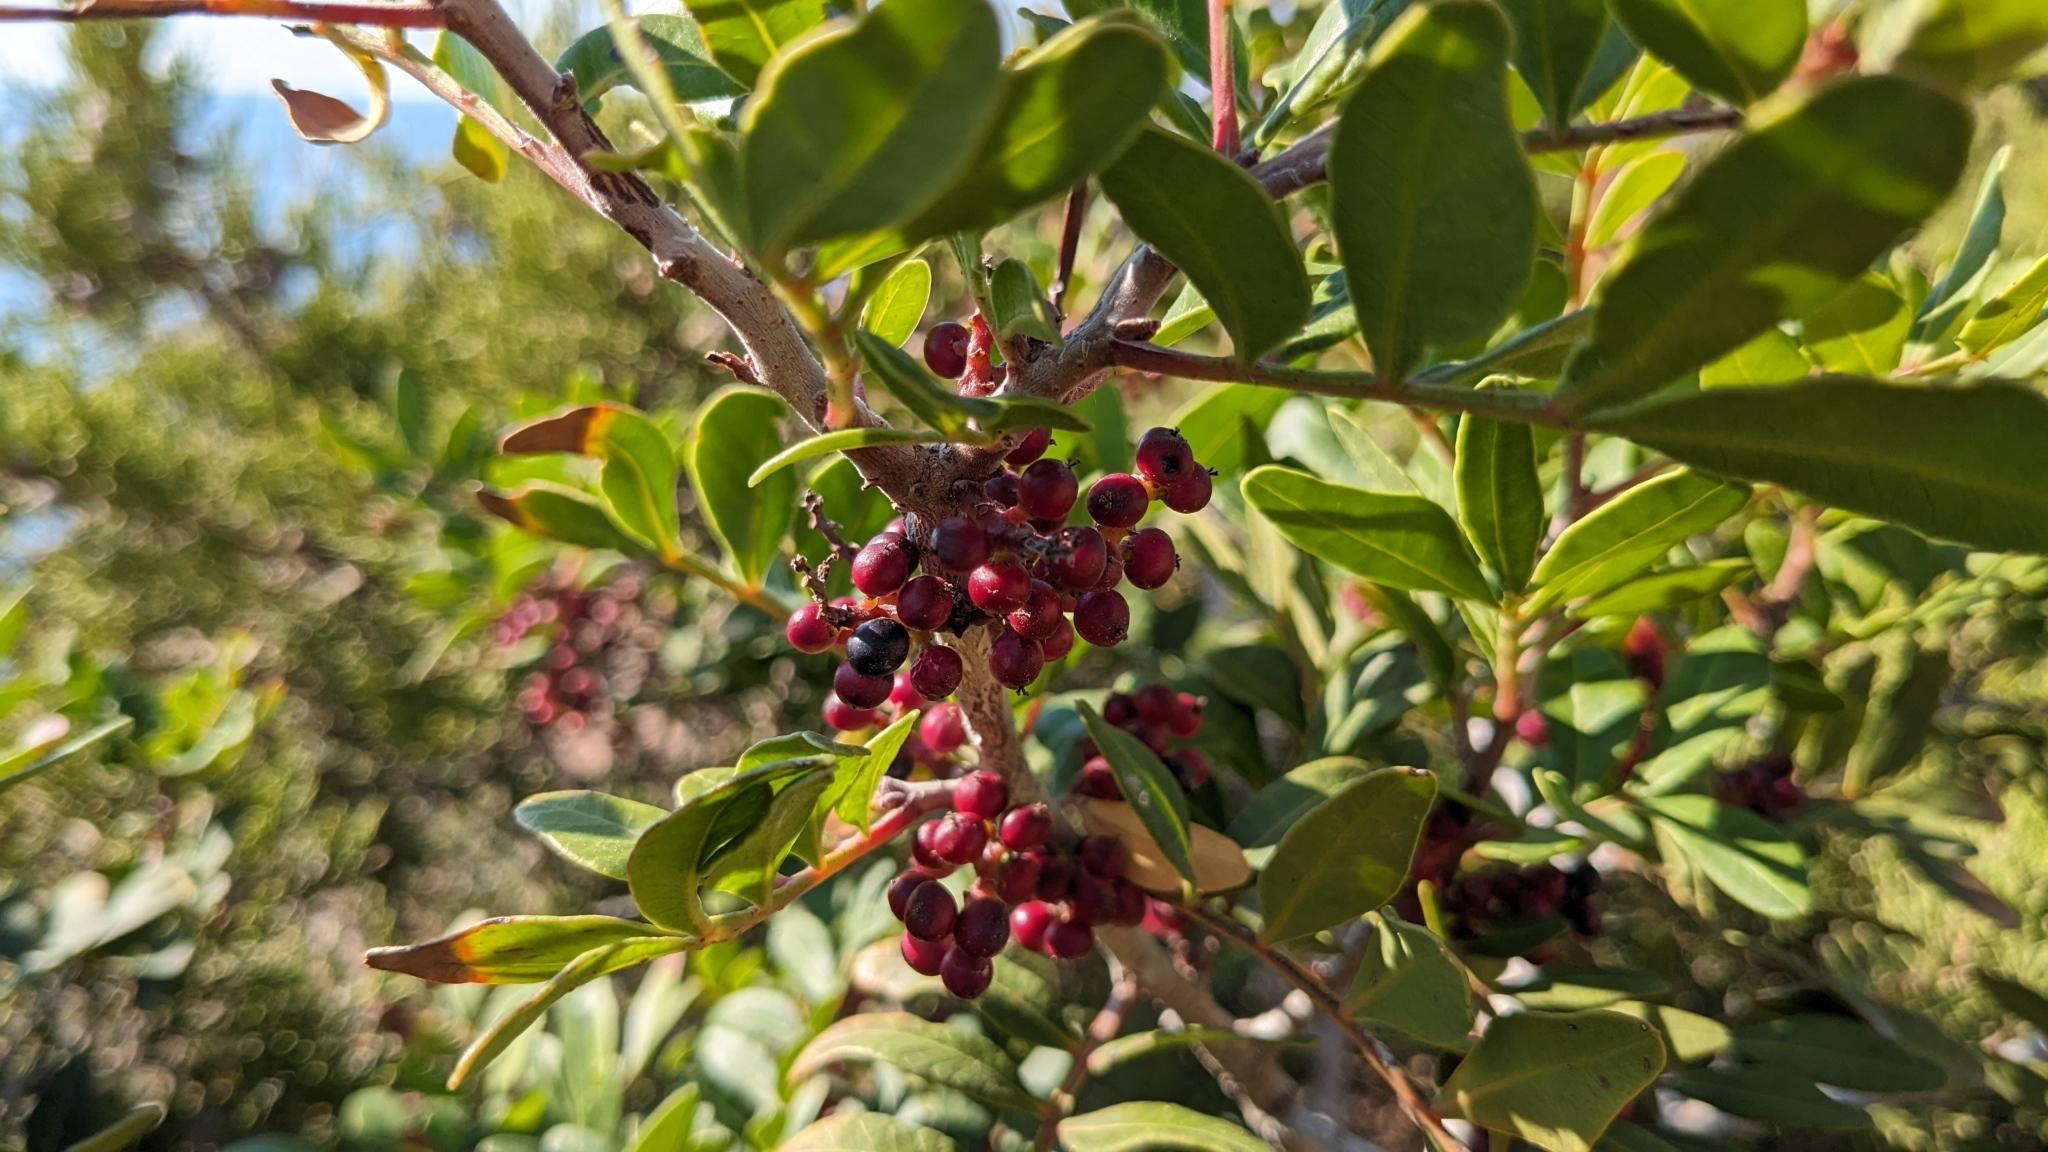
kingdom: Plantae
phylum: Tracheophyta
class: Magnoliopsida
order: Sapindales
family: Anacardiaceae
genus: Pistacia
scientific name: Pistacia lentiscus
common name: Lentisk
